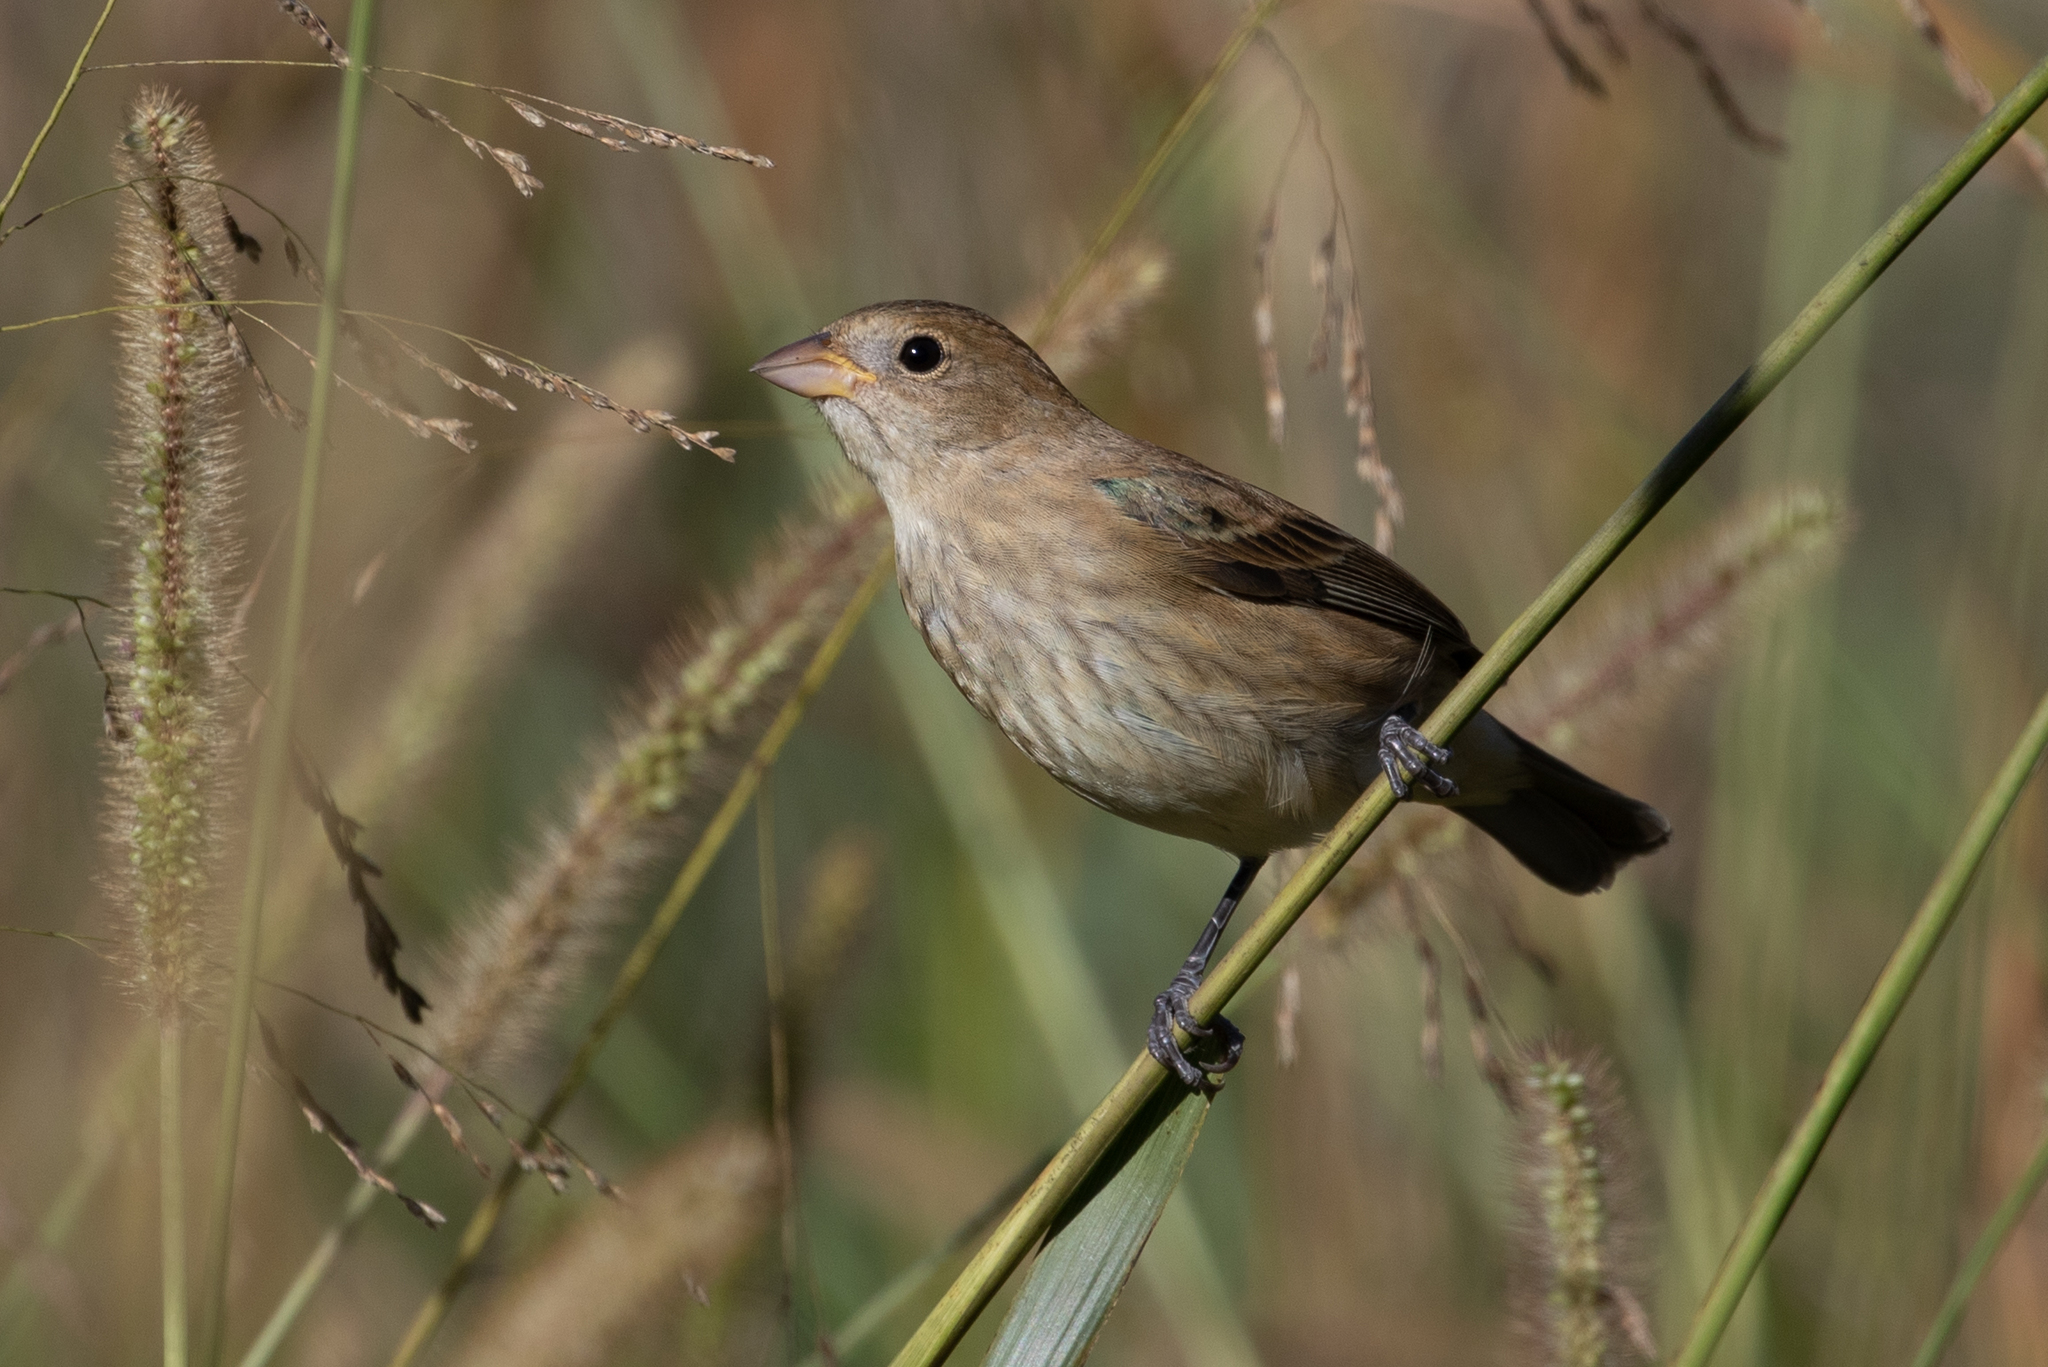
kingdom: Animalia
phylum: Chordata
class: Aves
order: Passeriformes
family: Cardinalidae
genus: Passerina
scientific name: Passerina cyanea
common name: Indigo bunting
